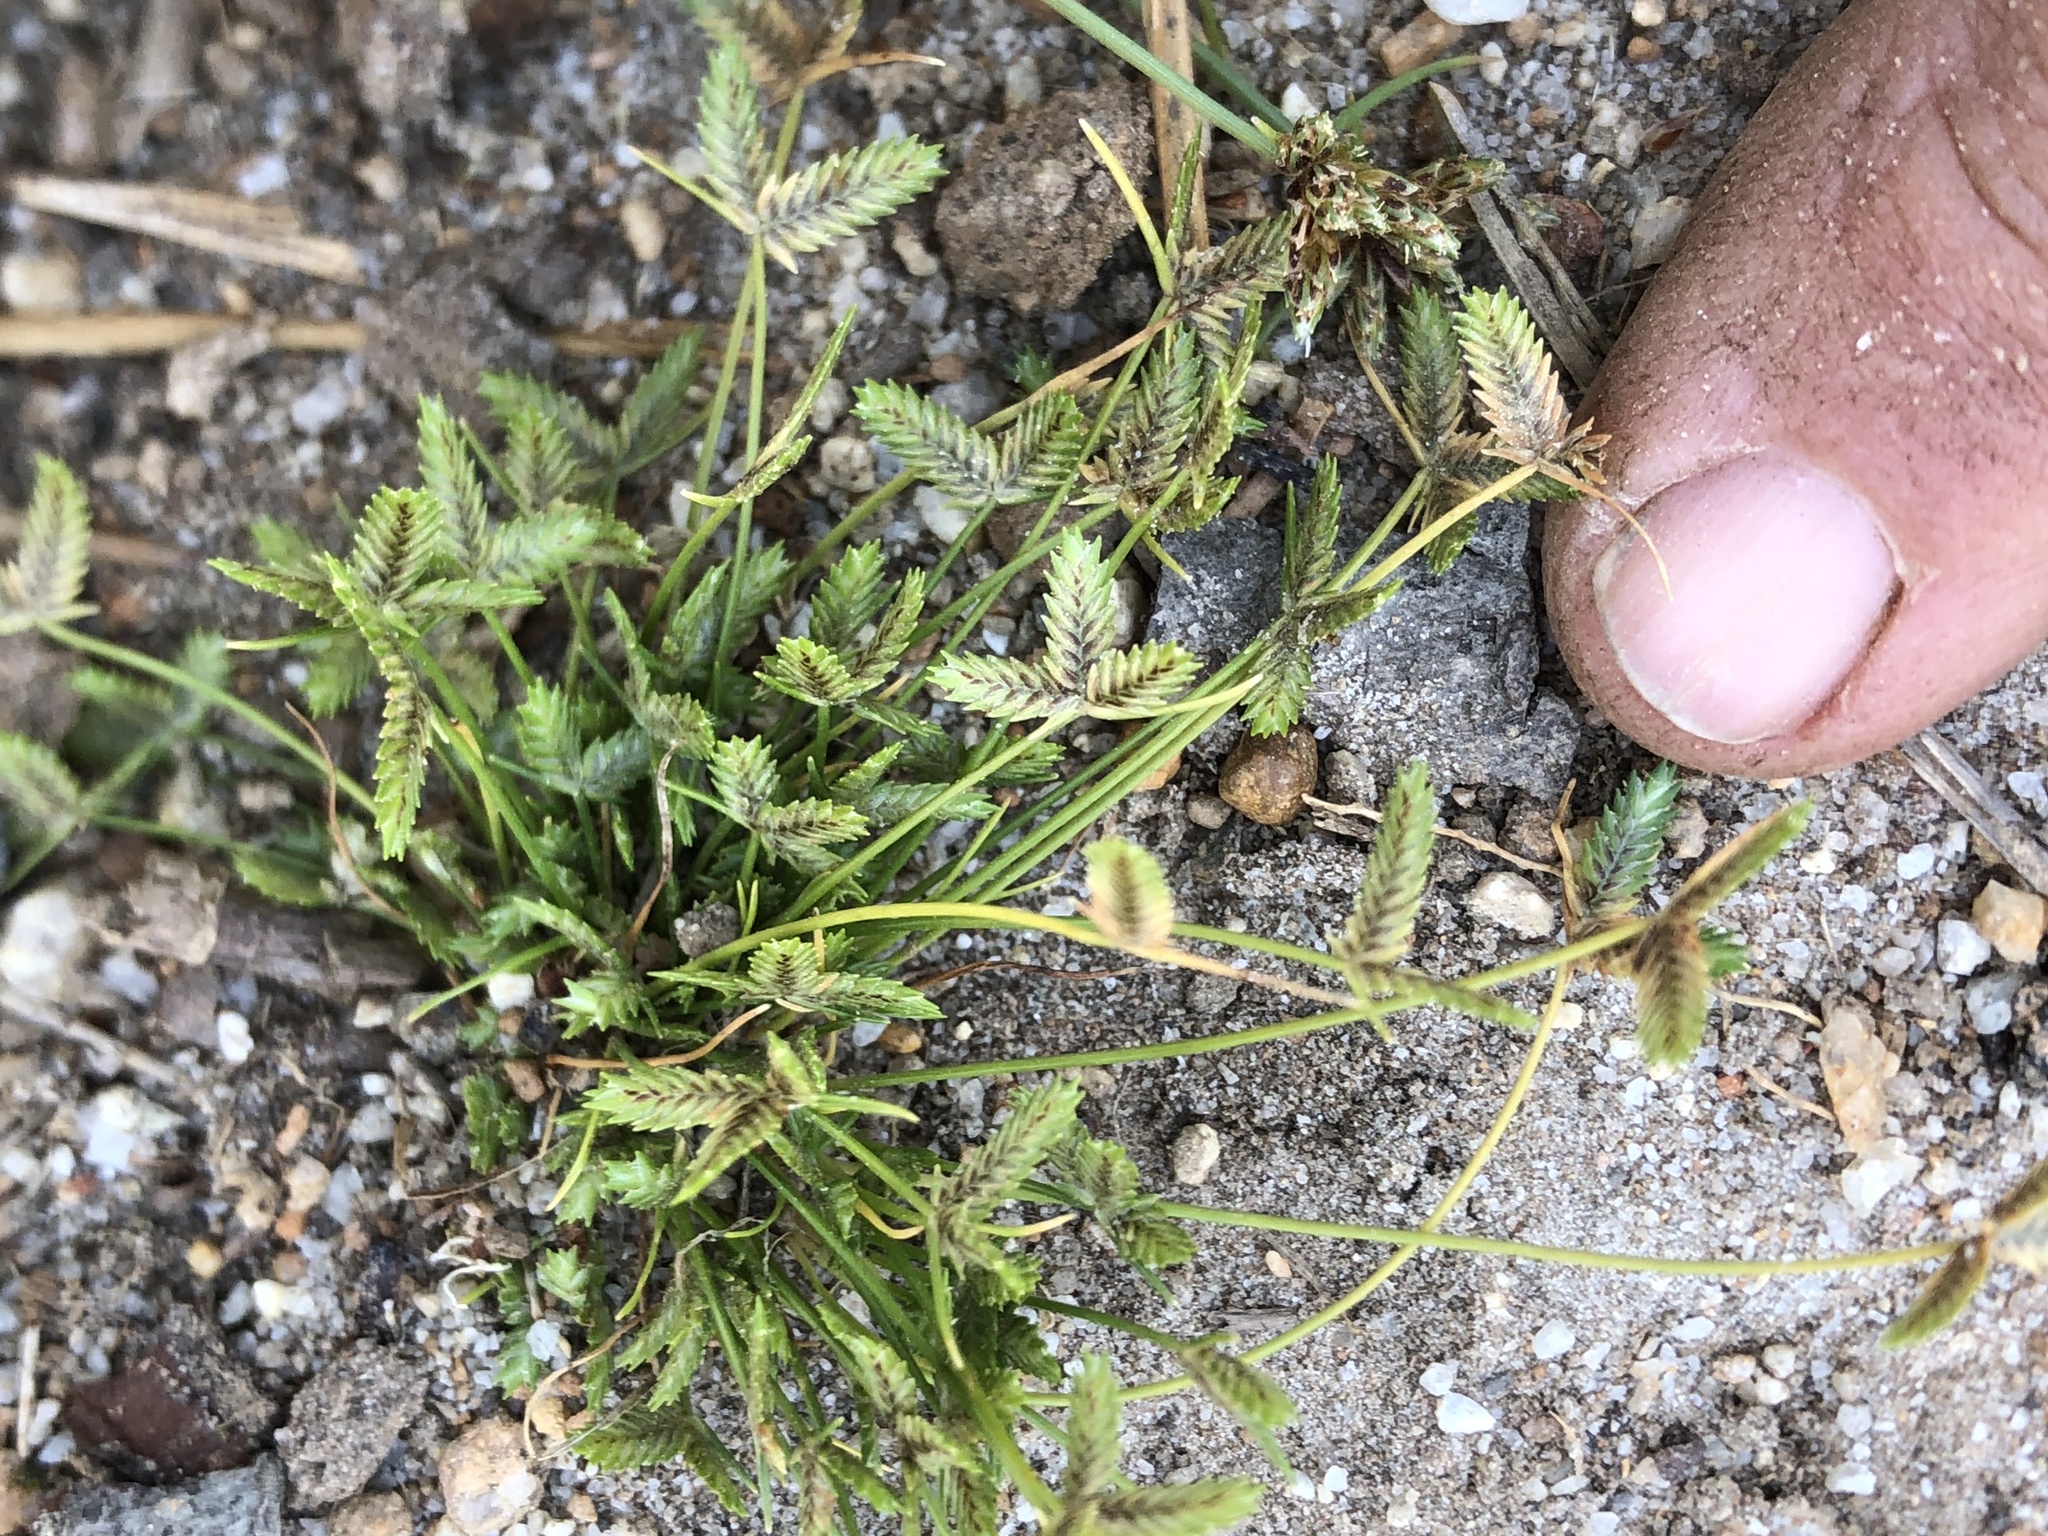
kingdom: Plantae
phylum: Tracheophyta
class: Liliopsida
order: Poales
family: Cyperaceae
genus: Isolepis
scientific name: Isolepis levynsiana
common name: Sedge
